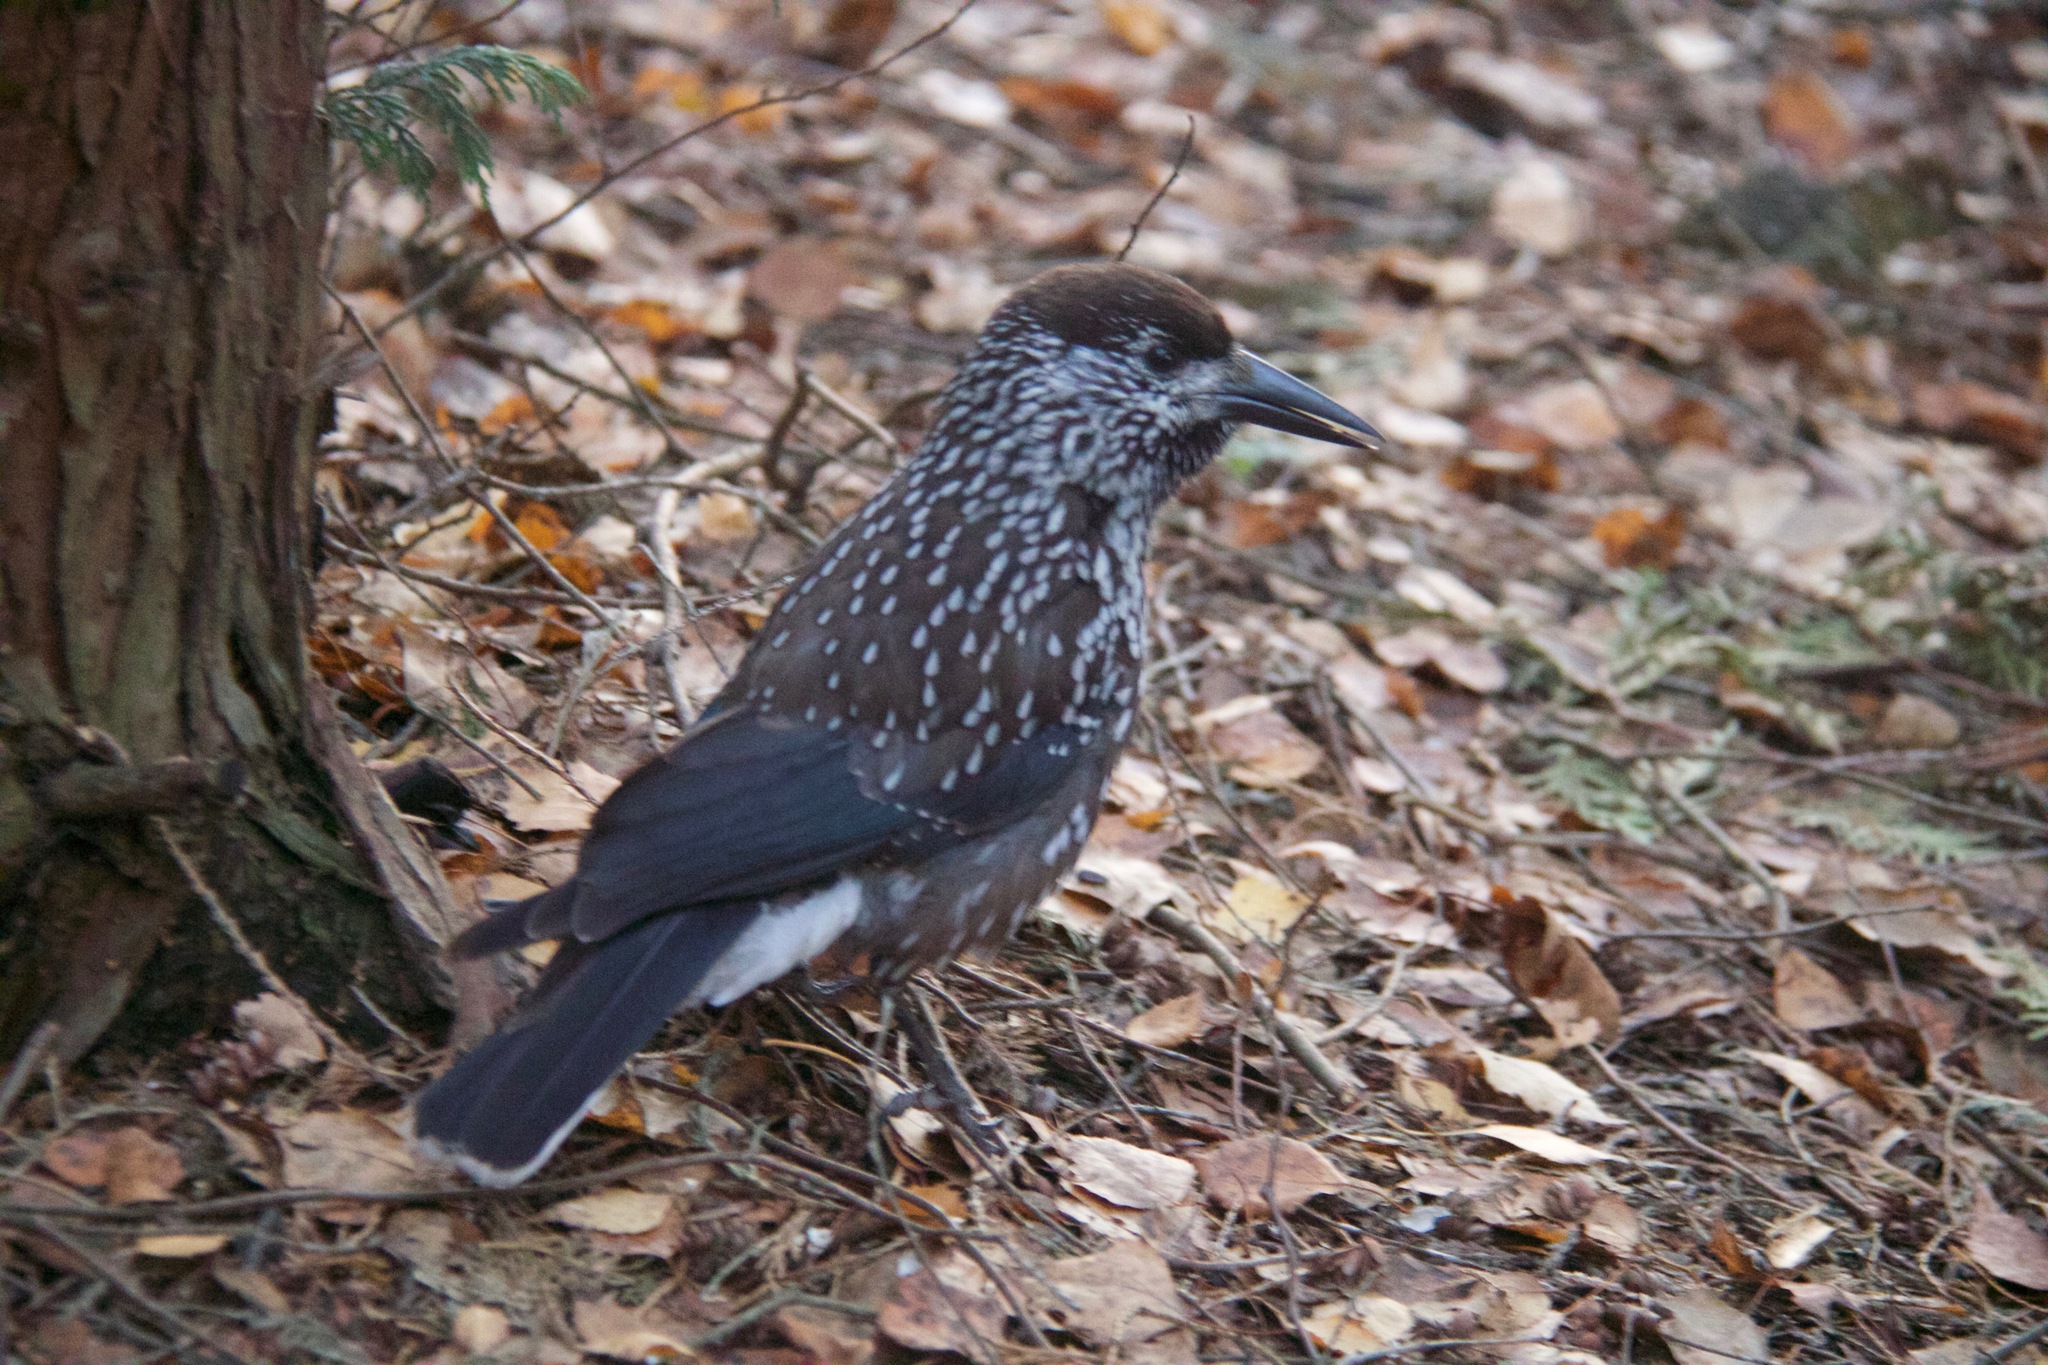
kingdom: Animalia
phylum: Chordata
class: Aves
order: Passeriformes
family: Corvidae
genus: Nucifraga
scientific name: Nucifraga caryocatactes
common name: Spotted nutcracker
